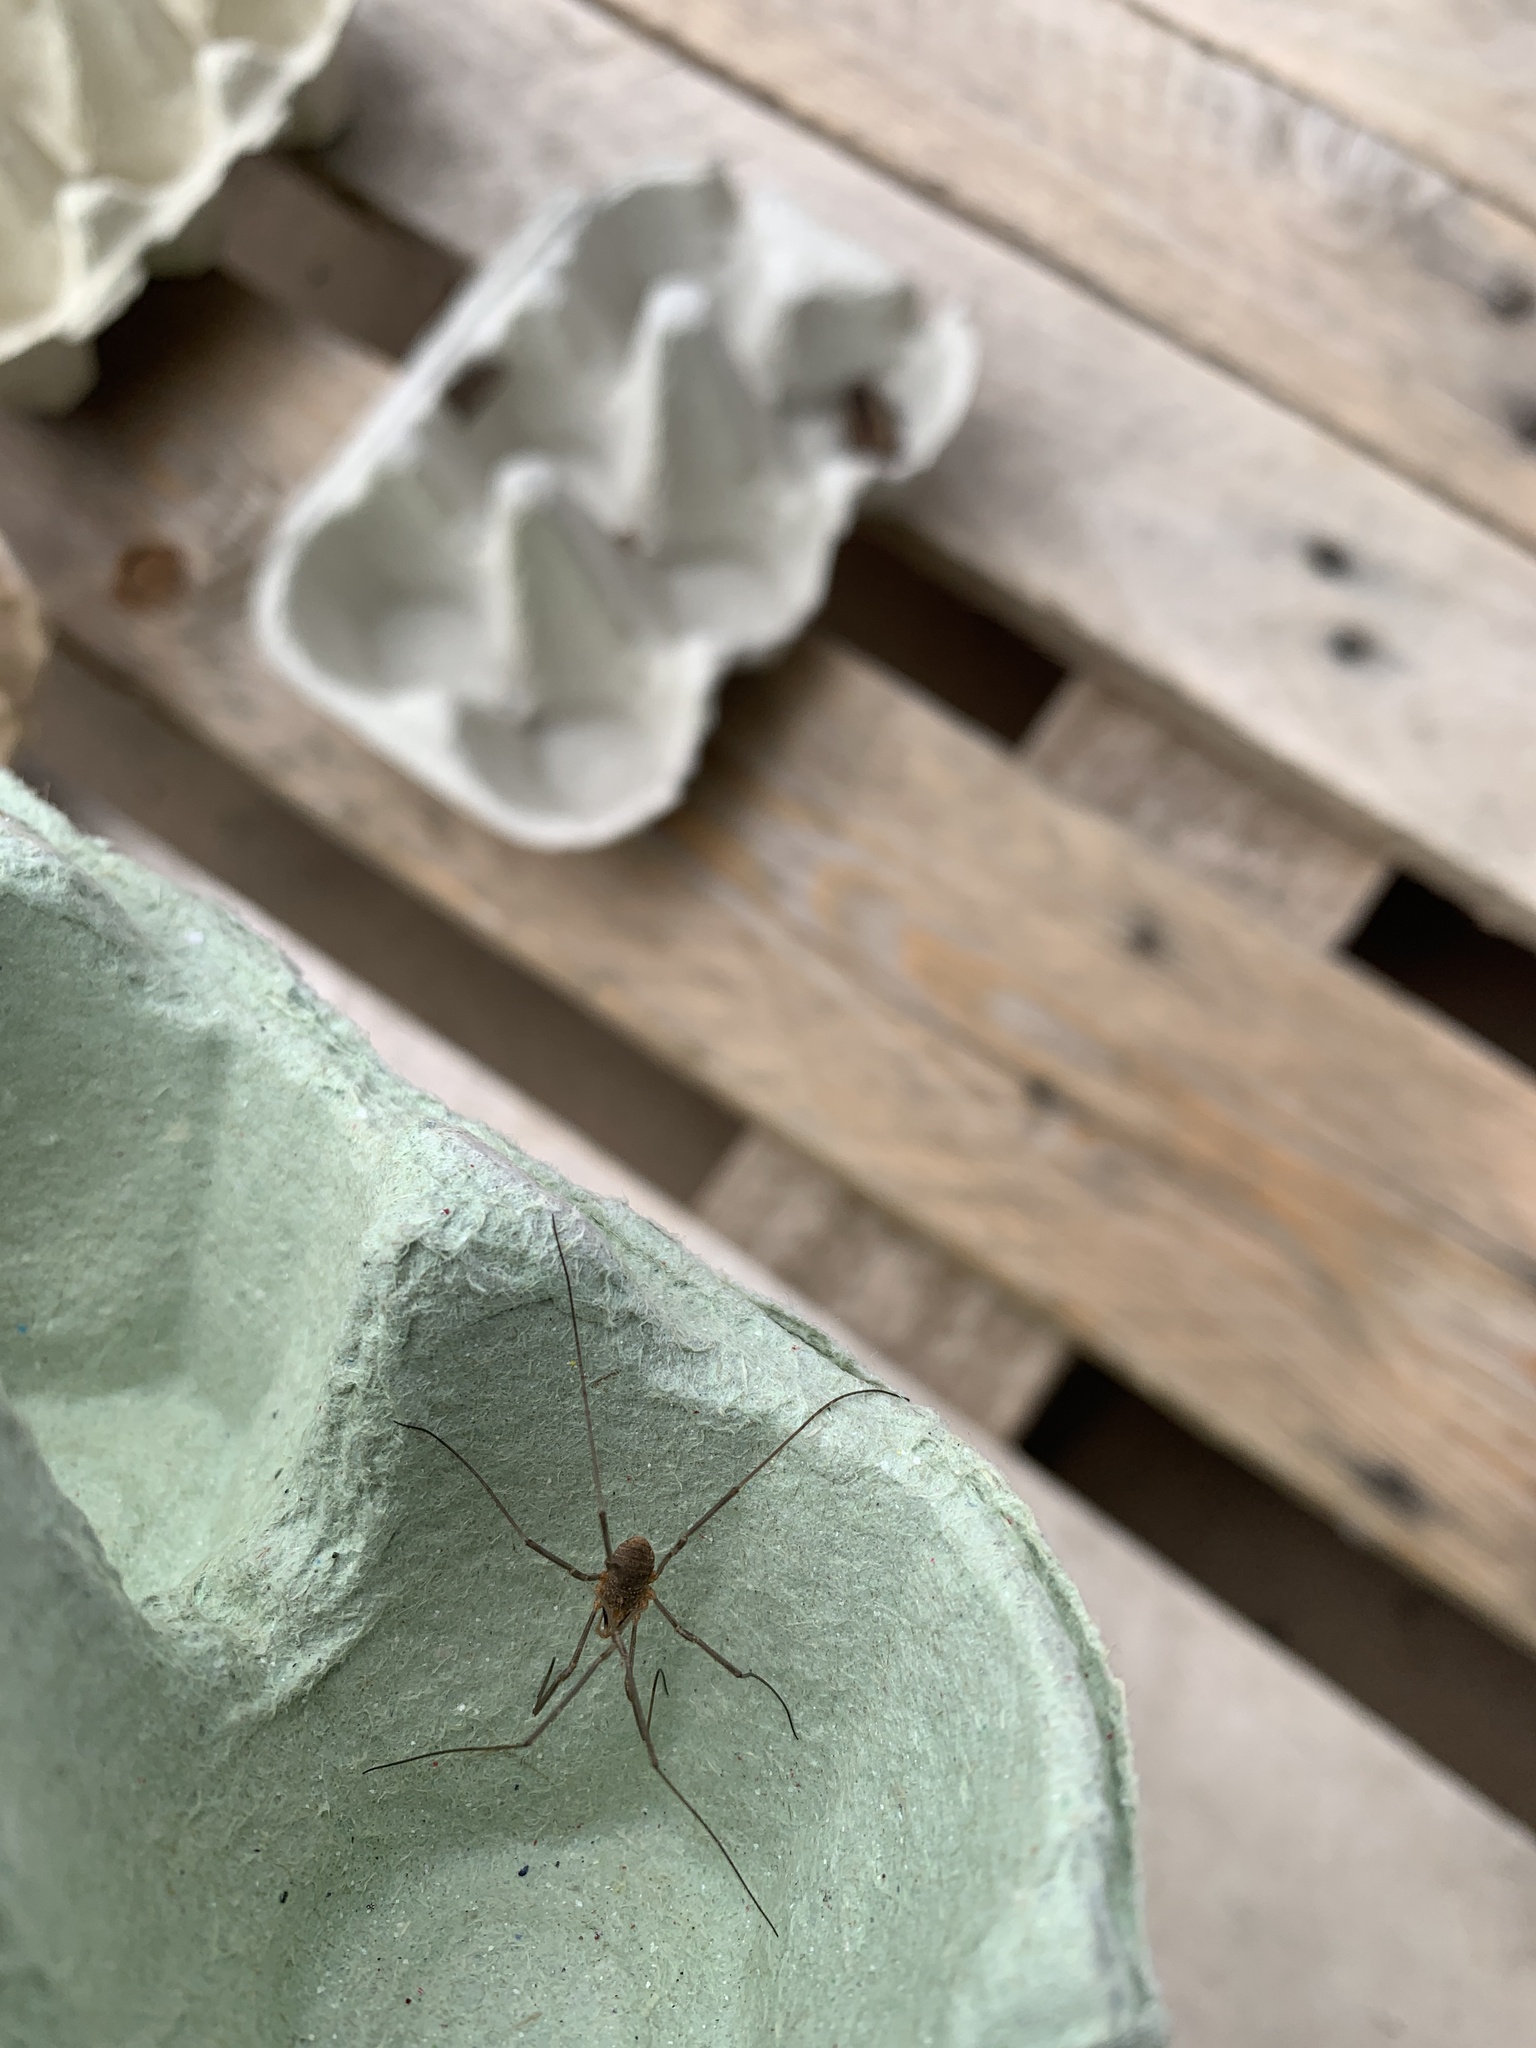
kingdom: Animalia
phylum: Arthropoda
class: Arachnida
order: Opiliones
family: Phalangiidae
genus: Phalangium
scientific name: Phalangium opilio
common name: Daddy longleg
